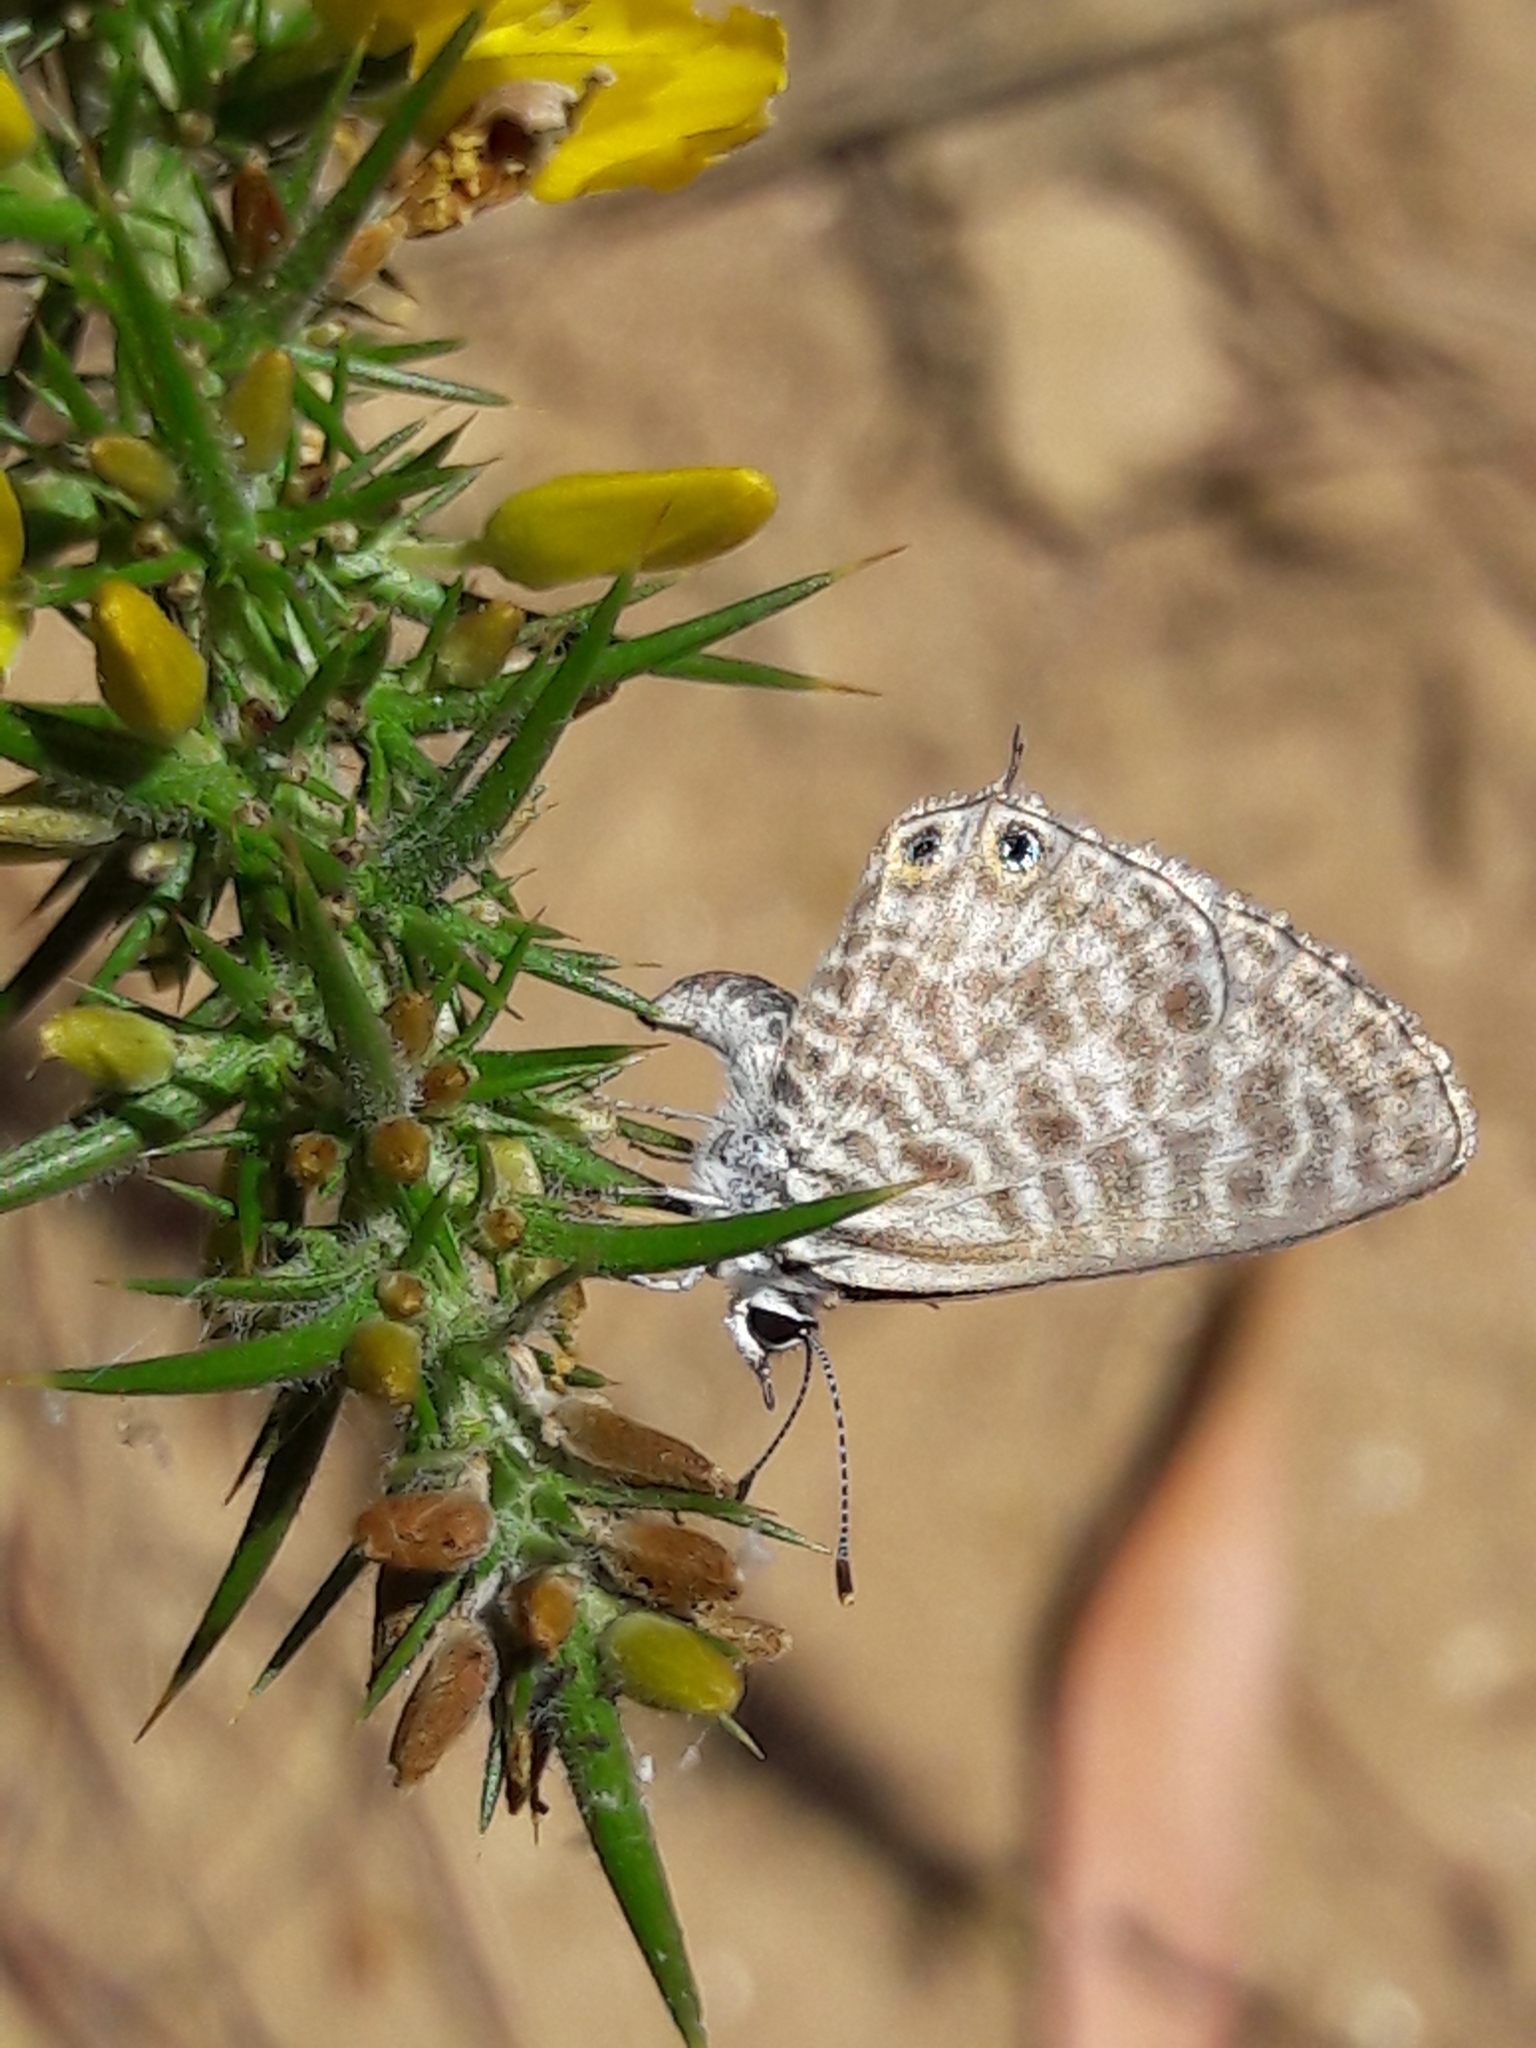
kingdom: Animalia
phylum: Arthropoda
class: Insecta
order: Lepidoptera
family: Lycaenidae
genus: Leptotes
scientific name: Leptotes pirithous
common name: Lang's short-tailed blue
